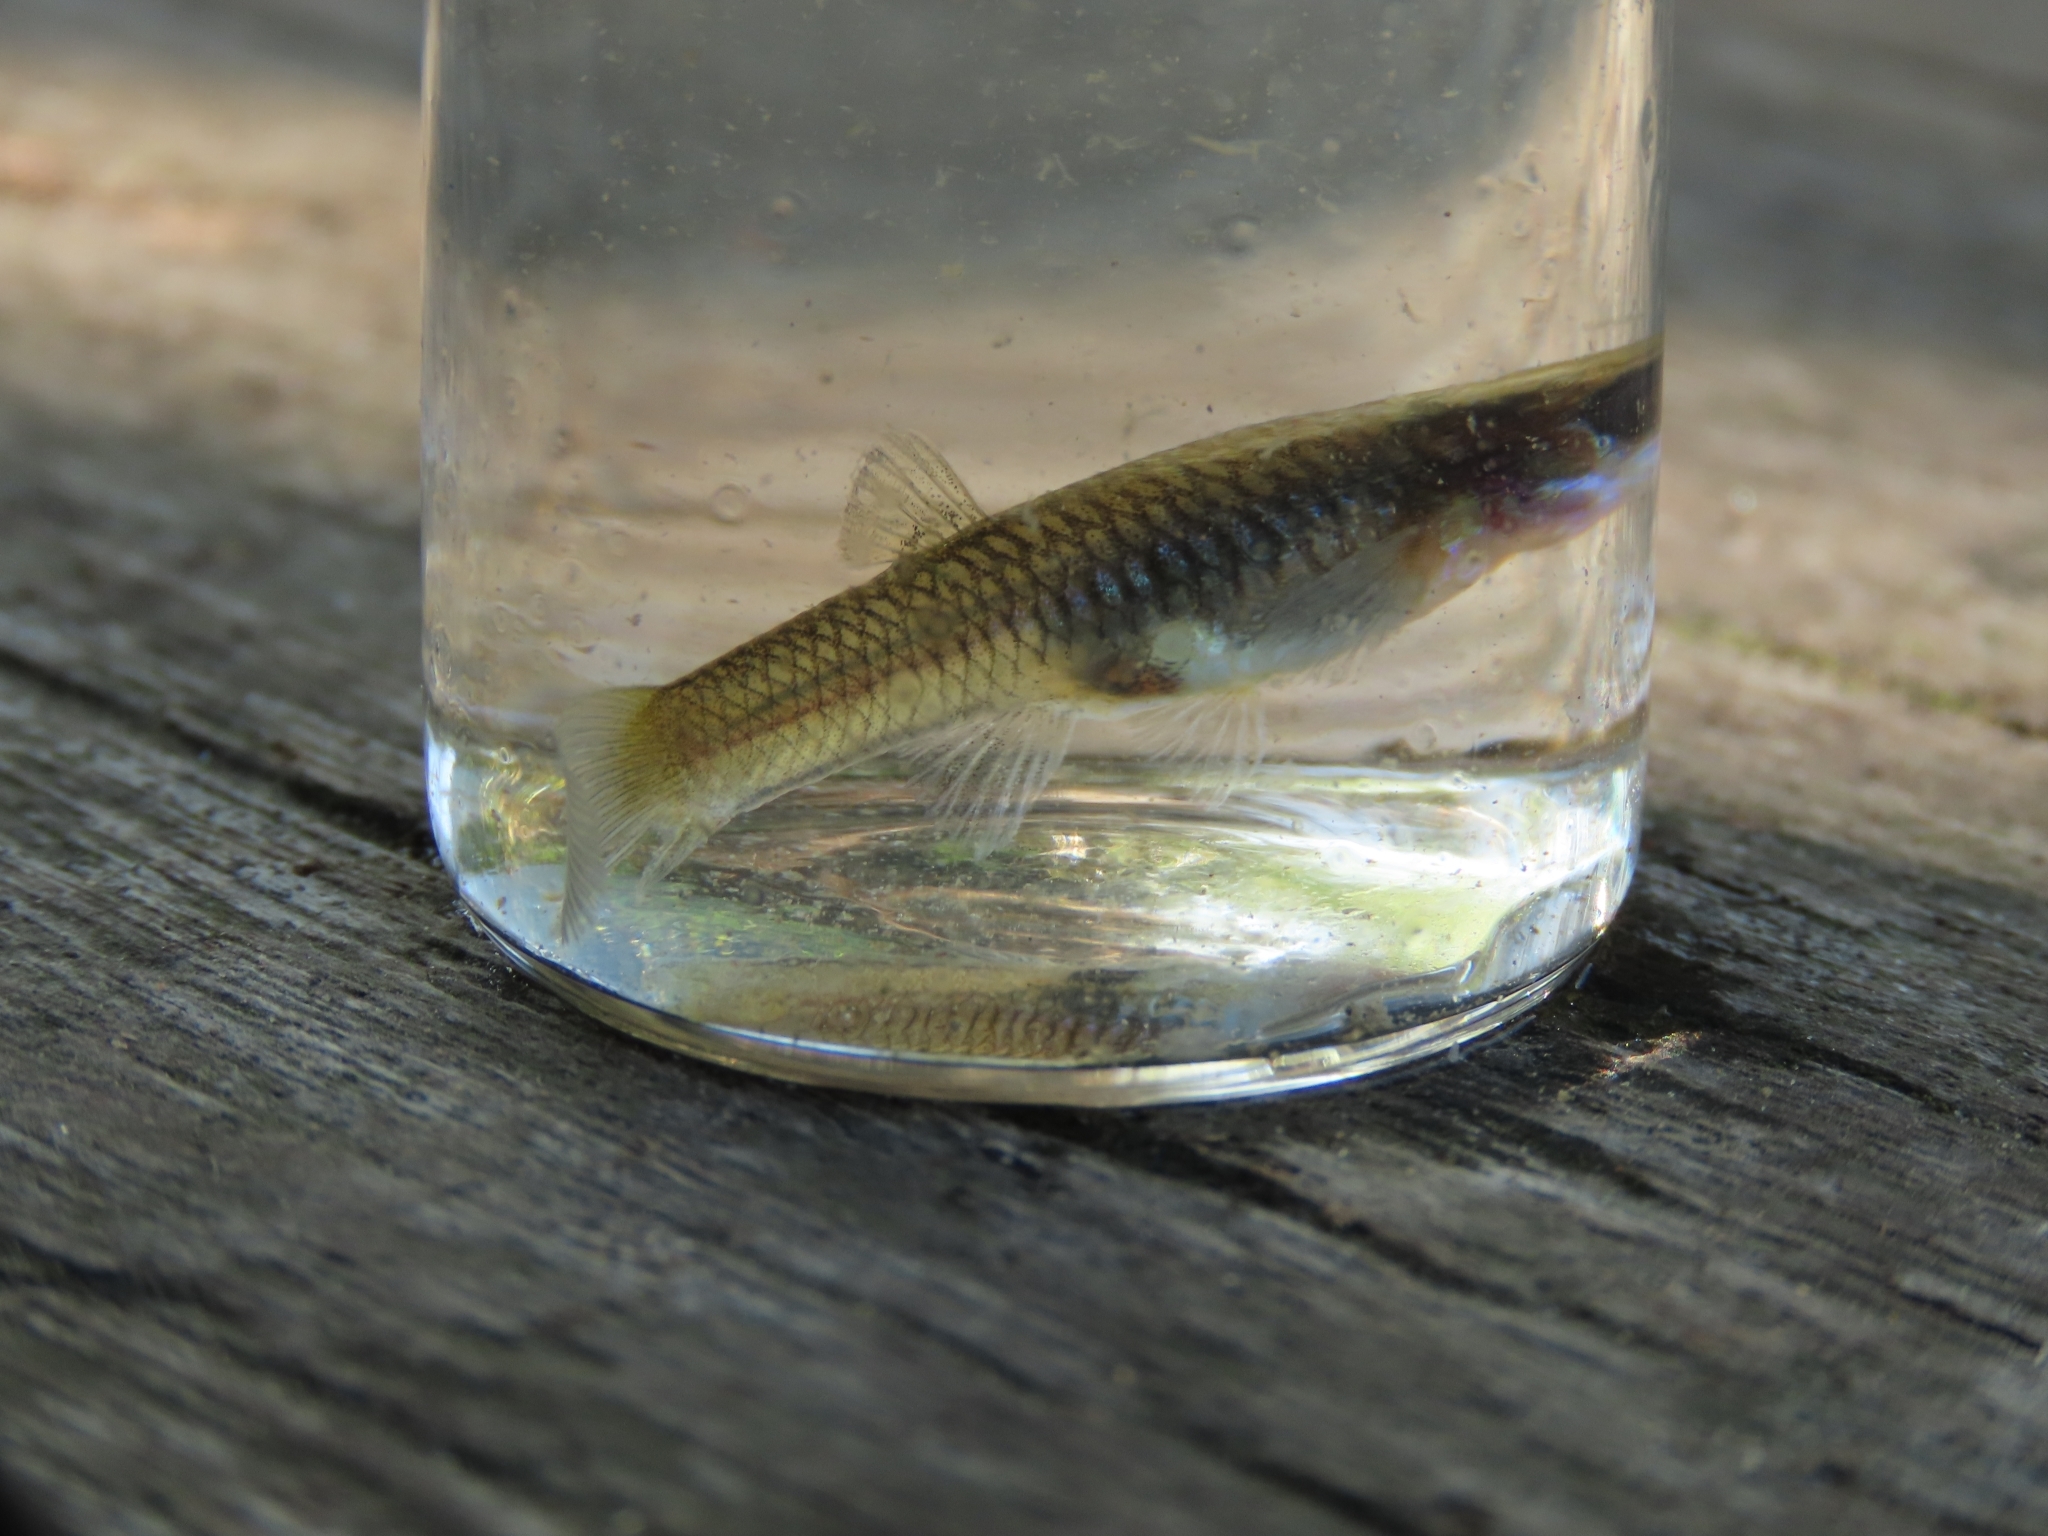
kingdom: Animalia
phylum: Chordata
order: Cyprinodontiformes
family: Poeciliidae
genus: Poecilia
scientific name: Poecilia reticulata
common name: Guppy
